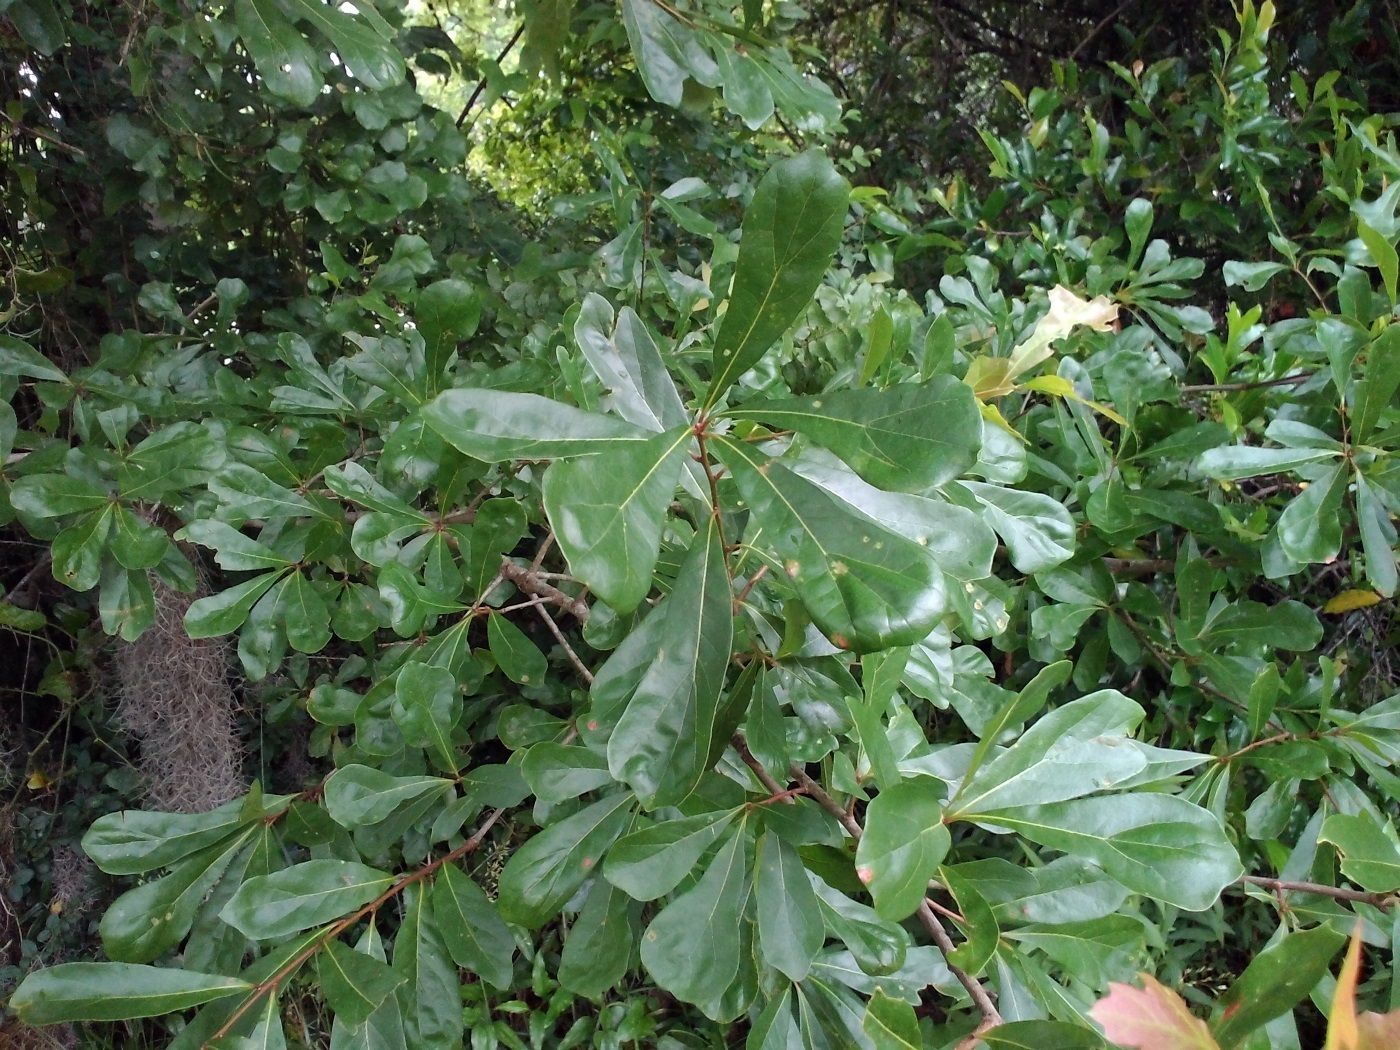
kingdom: Plantae
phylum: Tracheophyta
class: Magnoliopsida
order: Fagales
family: Fagaceae
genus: Quercus
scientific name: Quercus nigra
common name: Water oak
